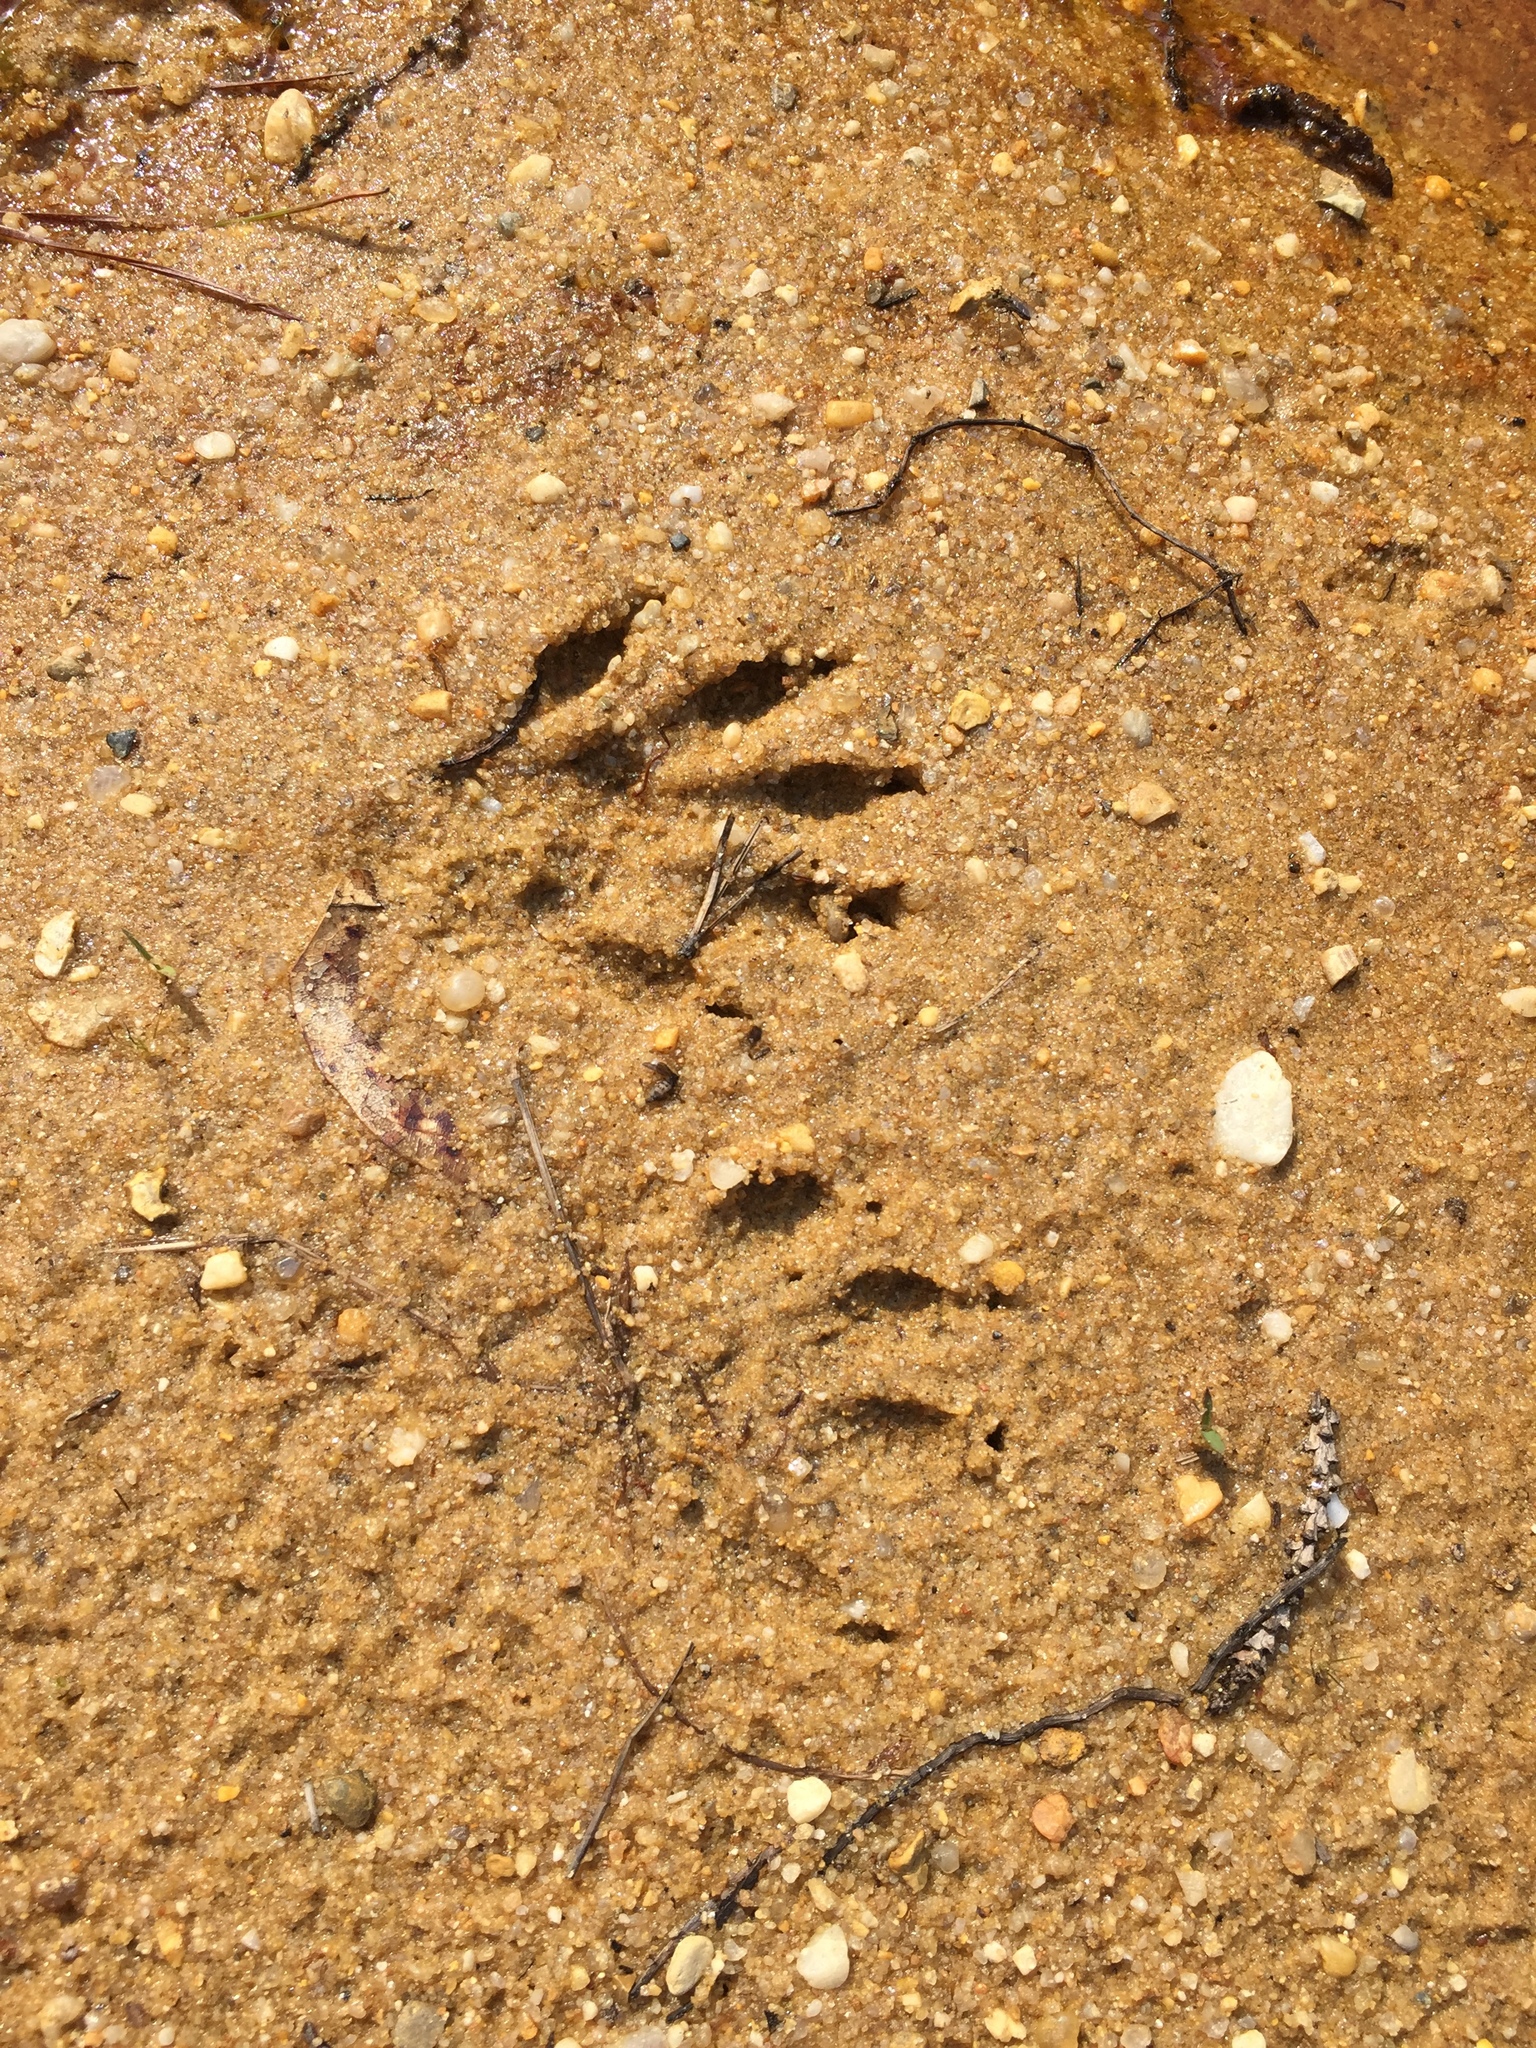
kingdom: Animalia
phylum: Chordata
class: Mammalia
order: Carnivora
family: Procyonidae
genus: Procyon
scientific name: Procyon lotor
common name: Raccoon
